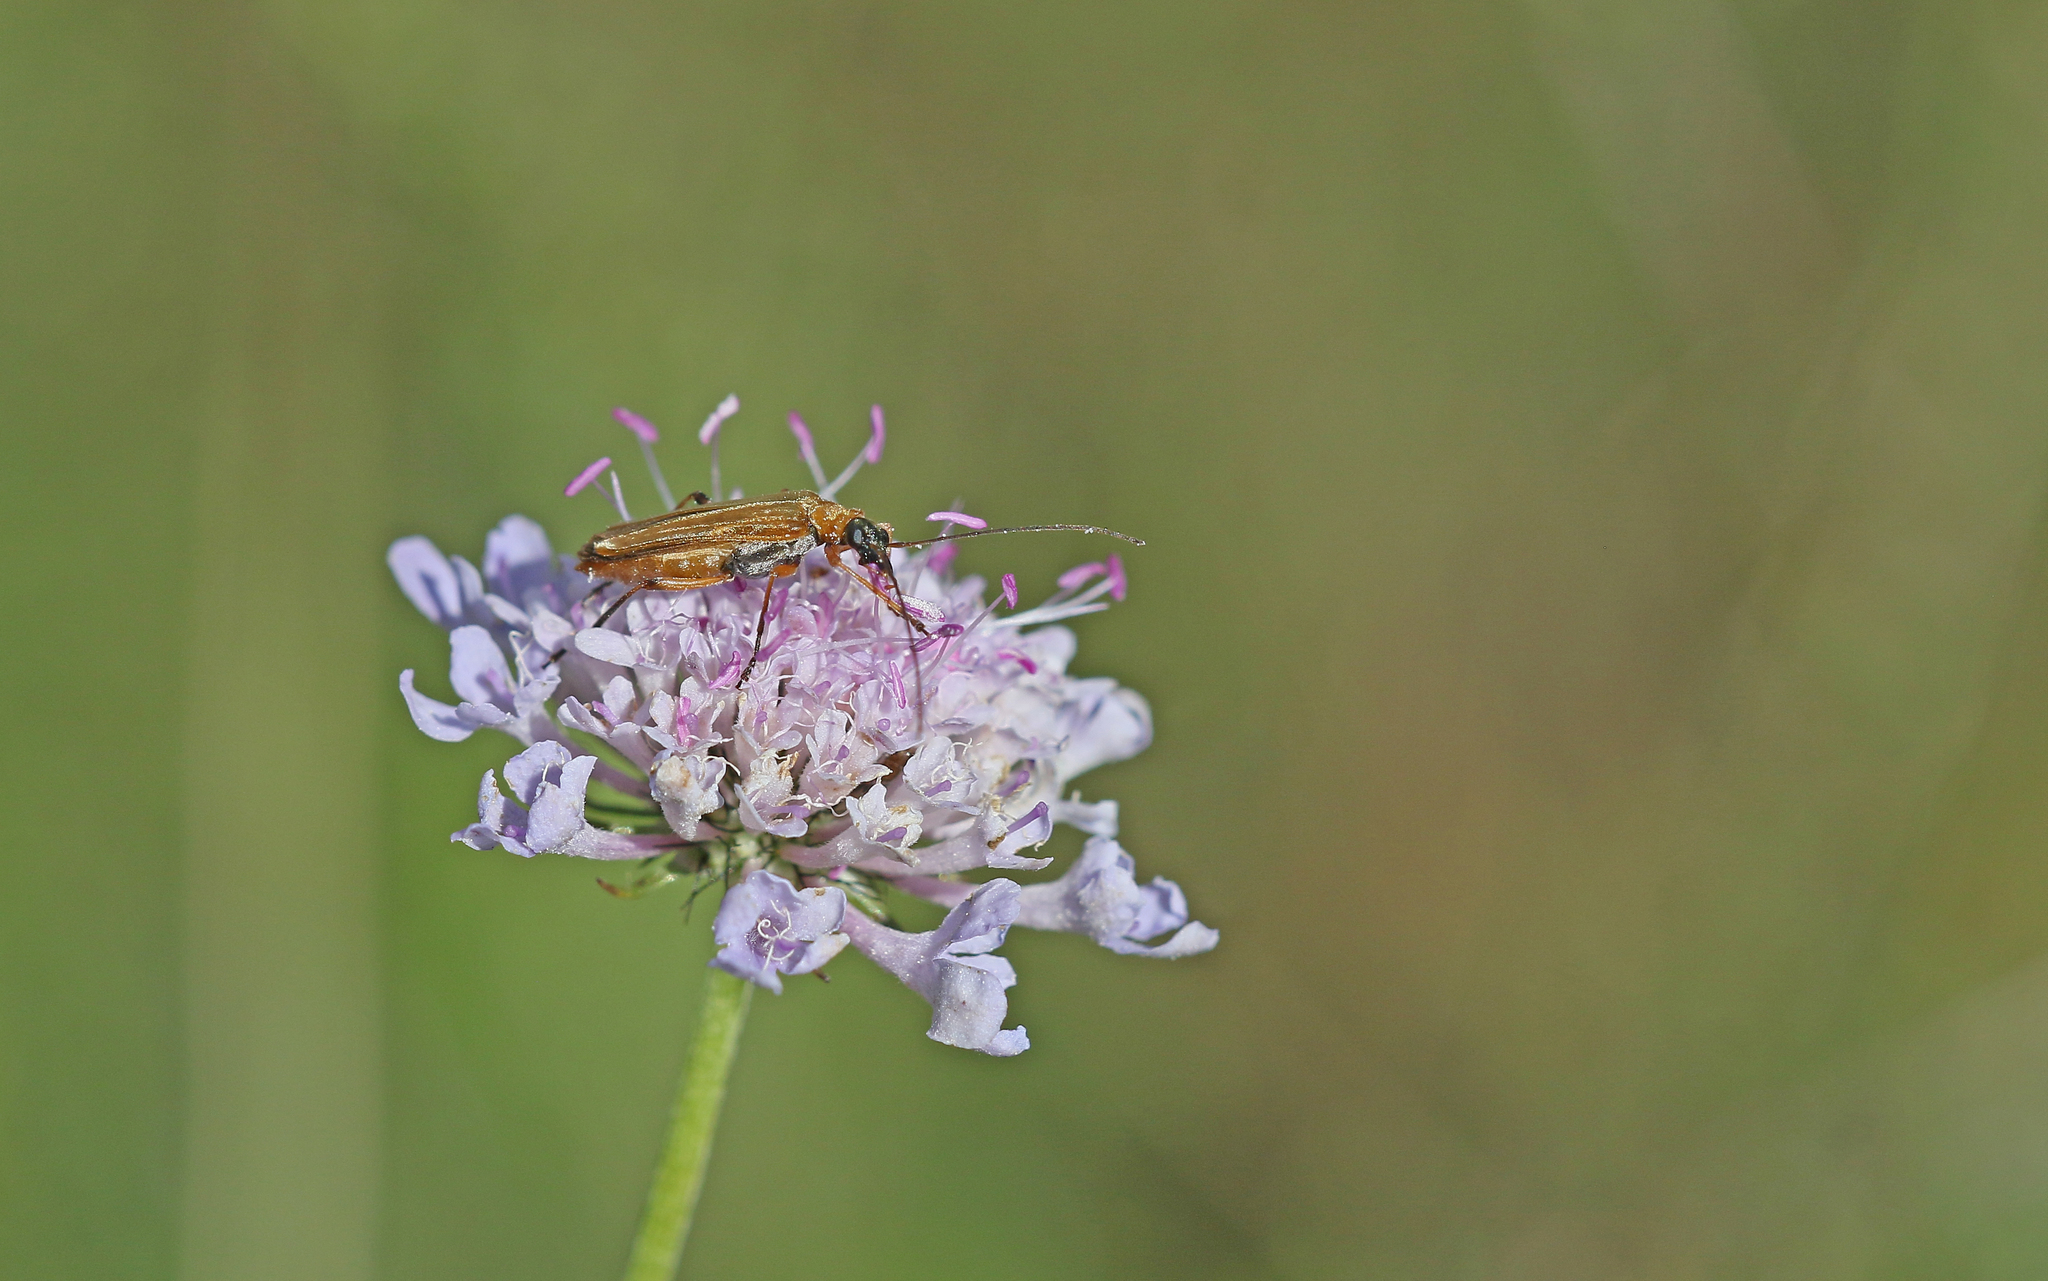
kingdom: Animalia
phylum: Arthropoda
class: Insecta
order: Coleoptera
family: Oedemeridae
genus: Oedemera
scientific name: Oedemera podagrariae
